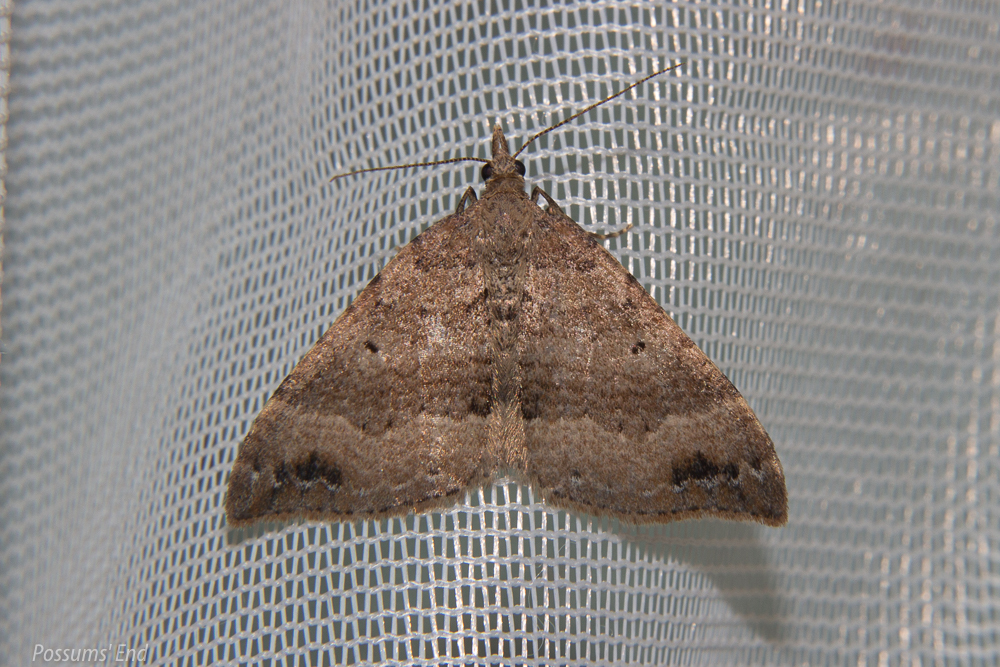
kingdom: Animalia
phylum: Arthropoda
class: Insecta
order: Lepidoptera
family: Geometridae
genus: Homodotis
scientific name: Homodotis falcata
